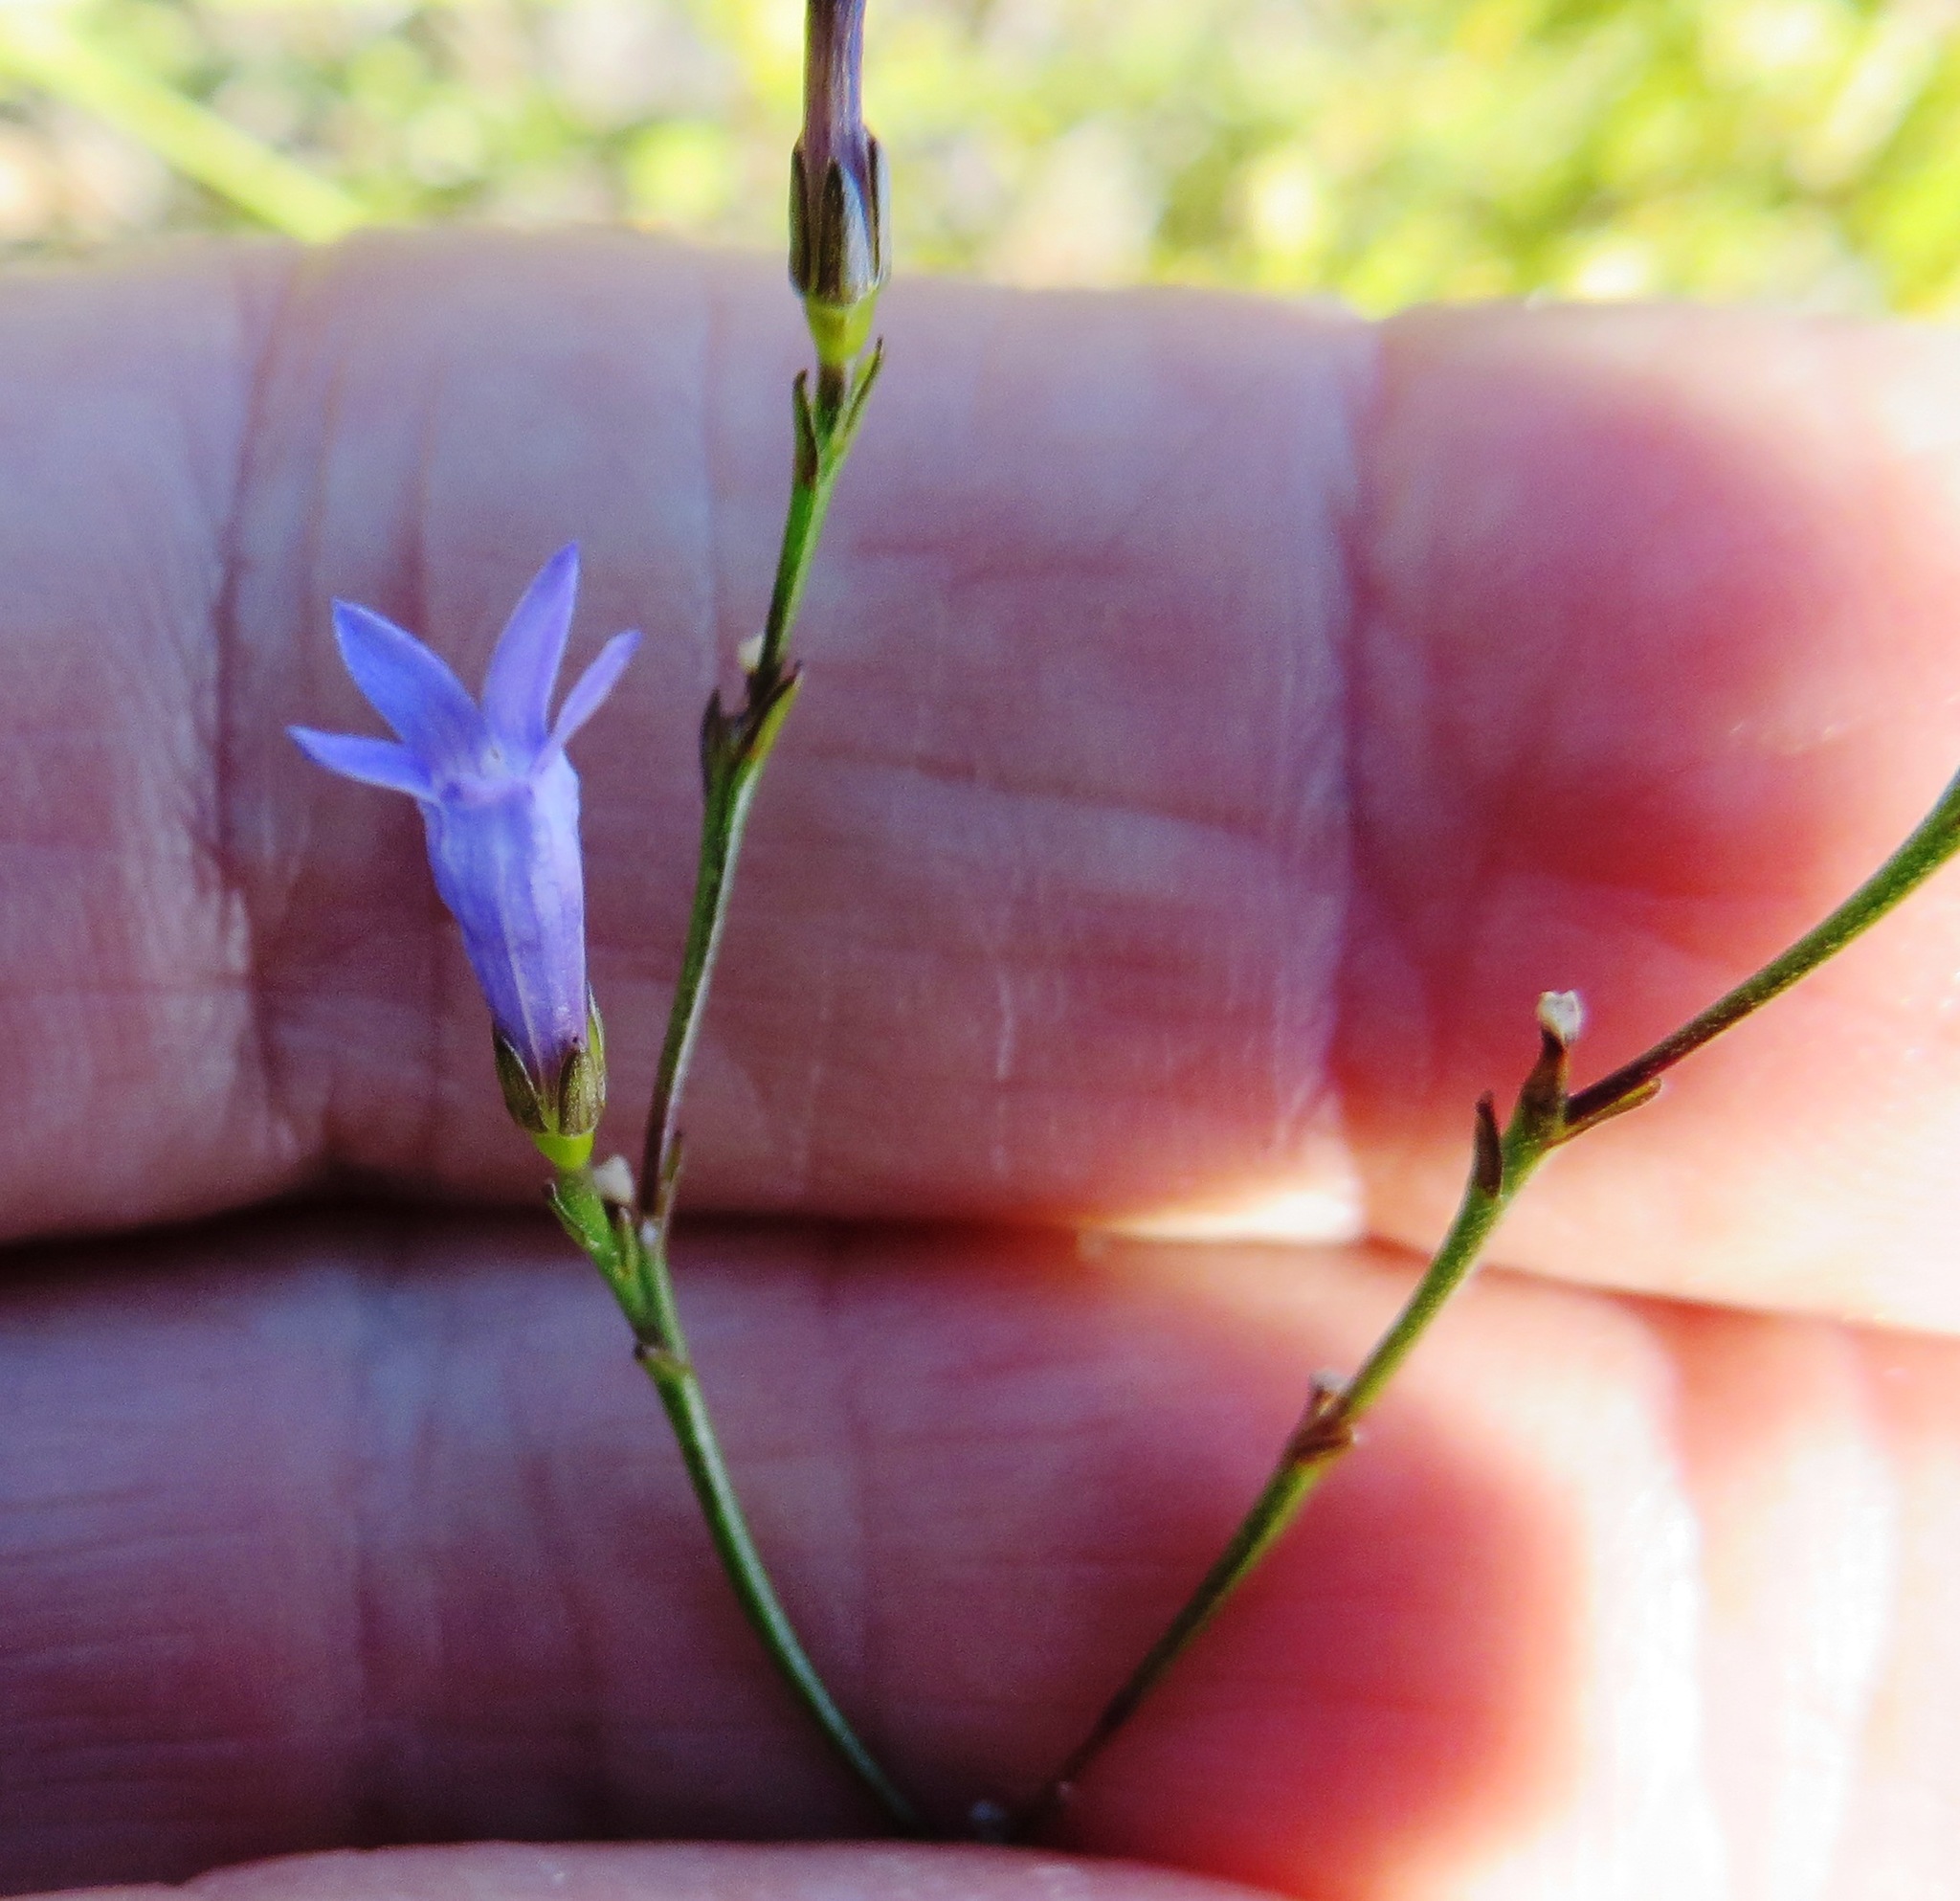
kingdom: Plantae
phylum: Tracheophyta
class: Magnoliopsida
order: Asterales
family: Campanulaceae
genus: Siphocodon
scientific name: Siphocodon spartioides
